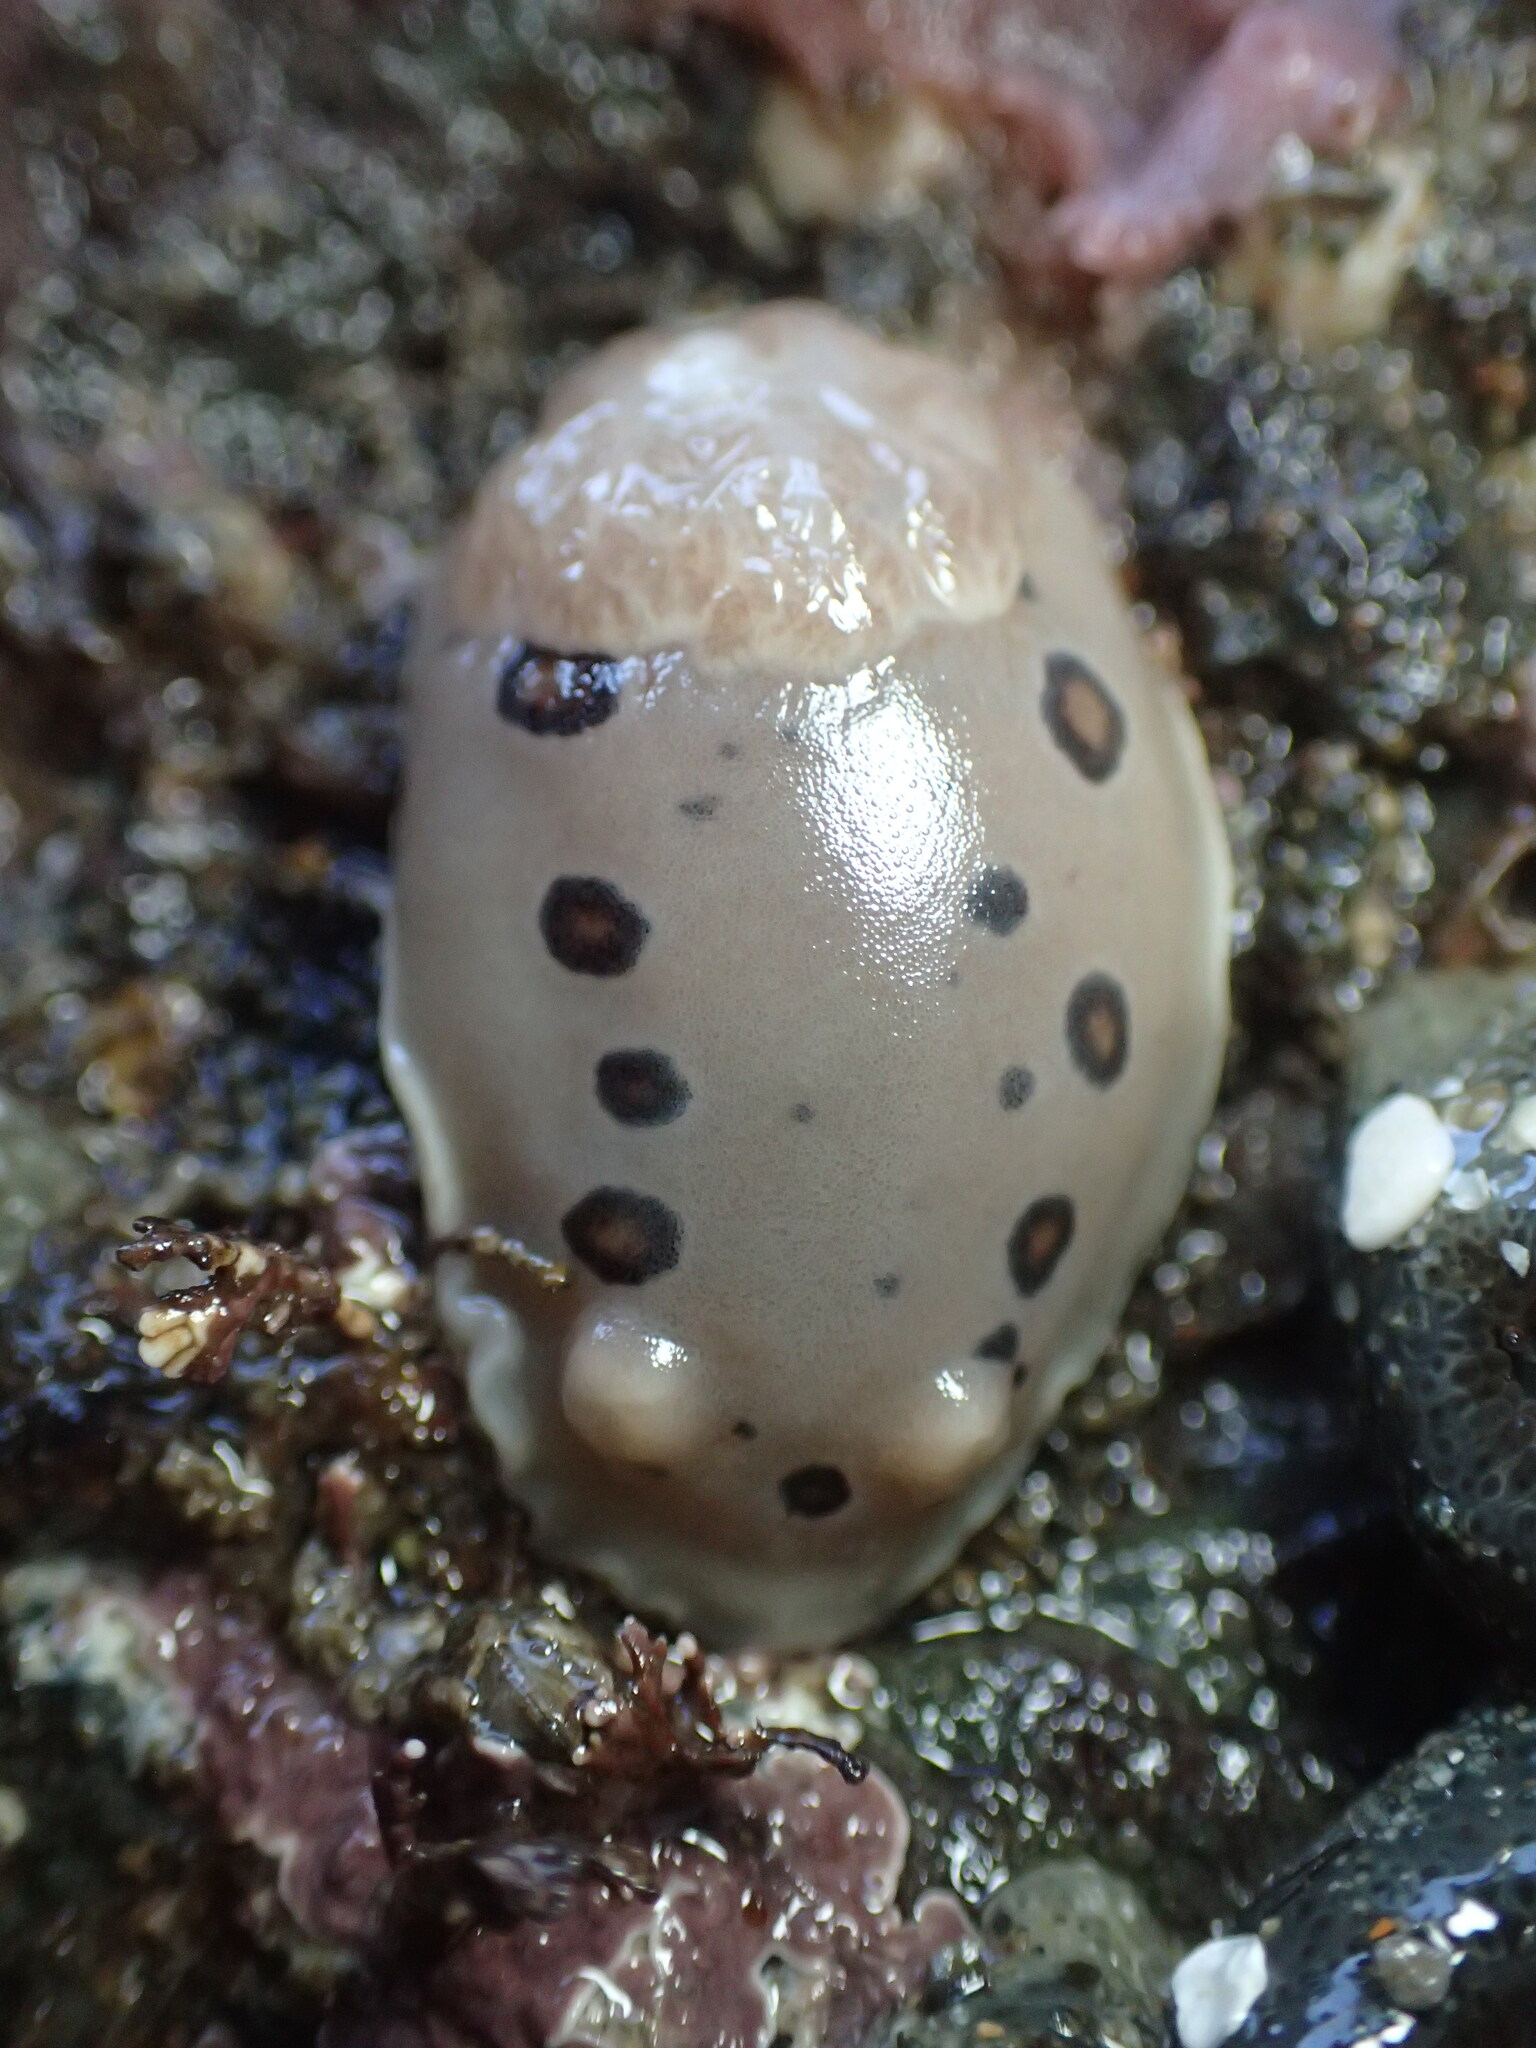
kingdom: Animalia
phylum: Mollusca
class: Gastropoda
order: Nudibranchia
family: Discodorididae
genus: Diaulula
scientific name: Diaulula sandiegensis
